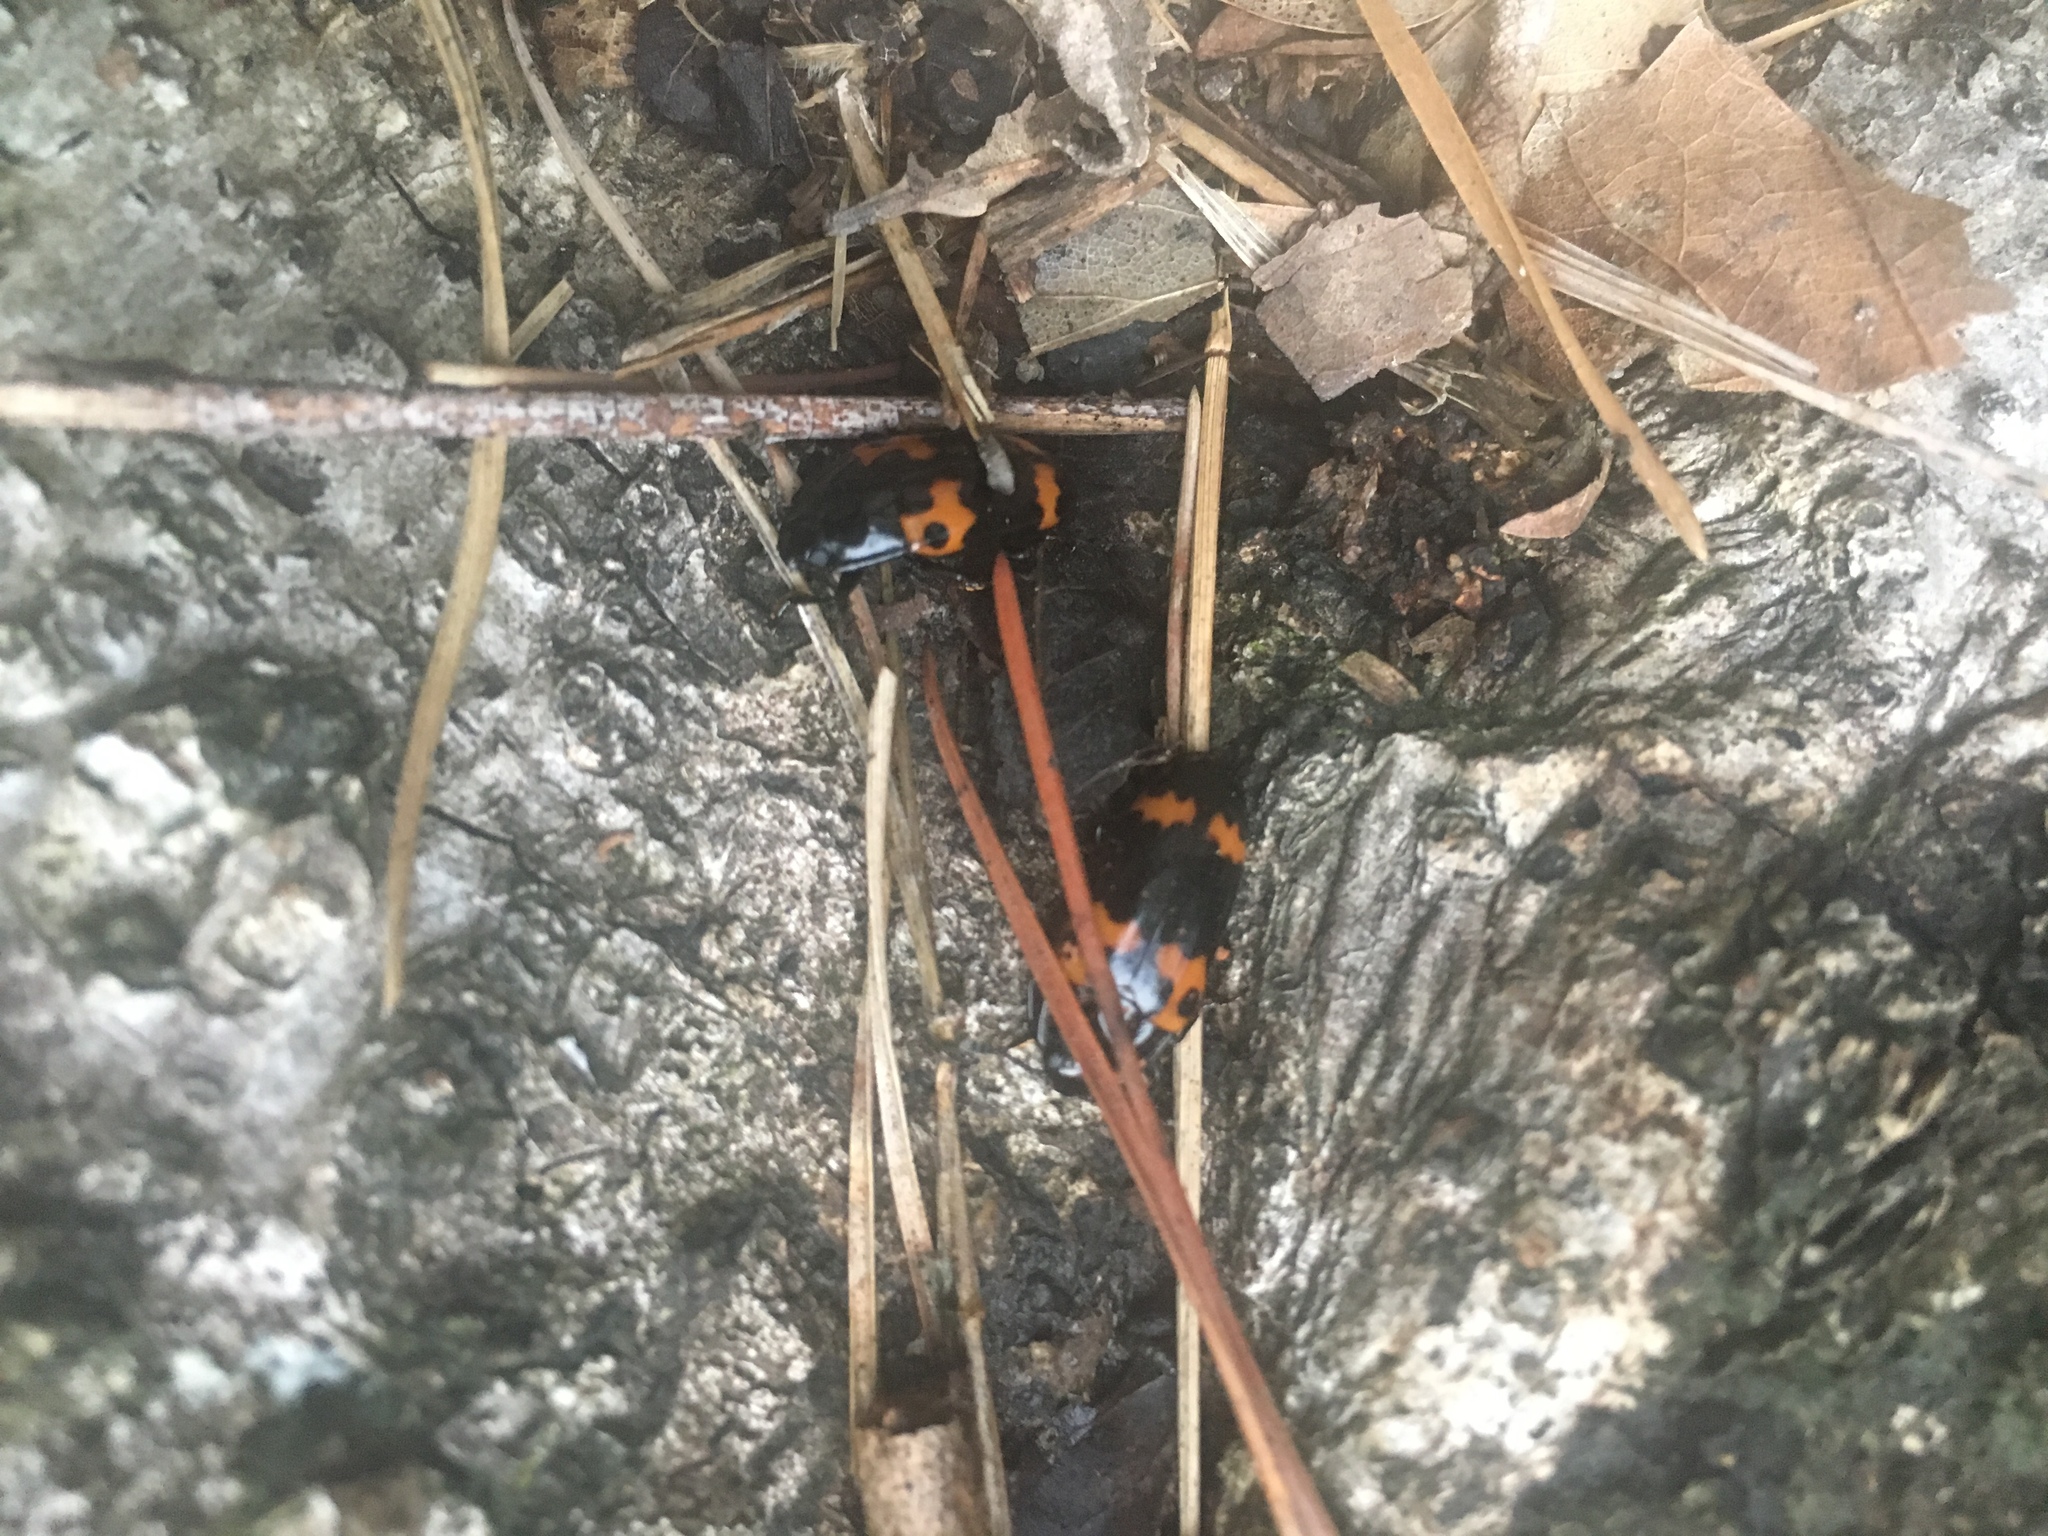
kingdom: Animalia
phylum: Arthropoda
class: Insecta
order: Coleoptera
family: Erotylidae
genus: Megalodacne
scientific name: Megalodacne fasciata
